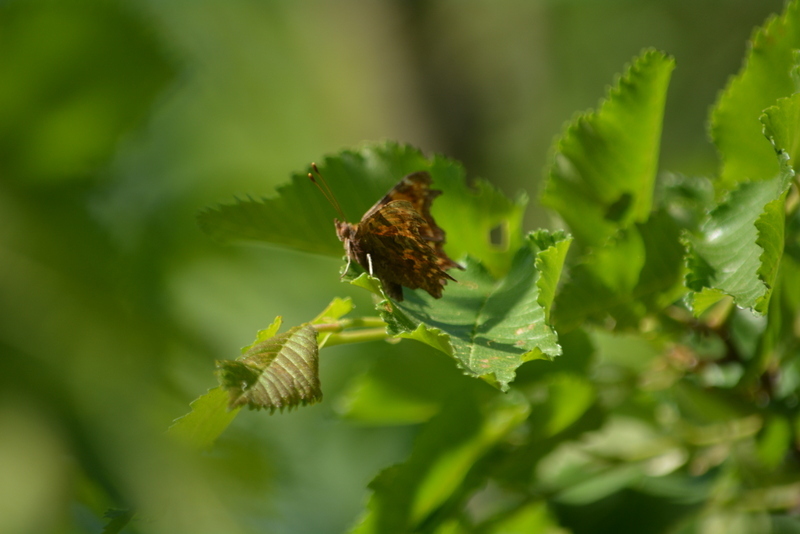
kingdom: Animalia
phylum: Arthropoda
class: Insecta
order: Lepidoptera
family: Nymphalidae
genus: Polygonia
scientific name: Polygonia c-album
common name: Comma
